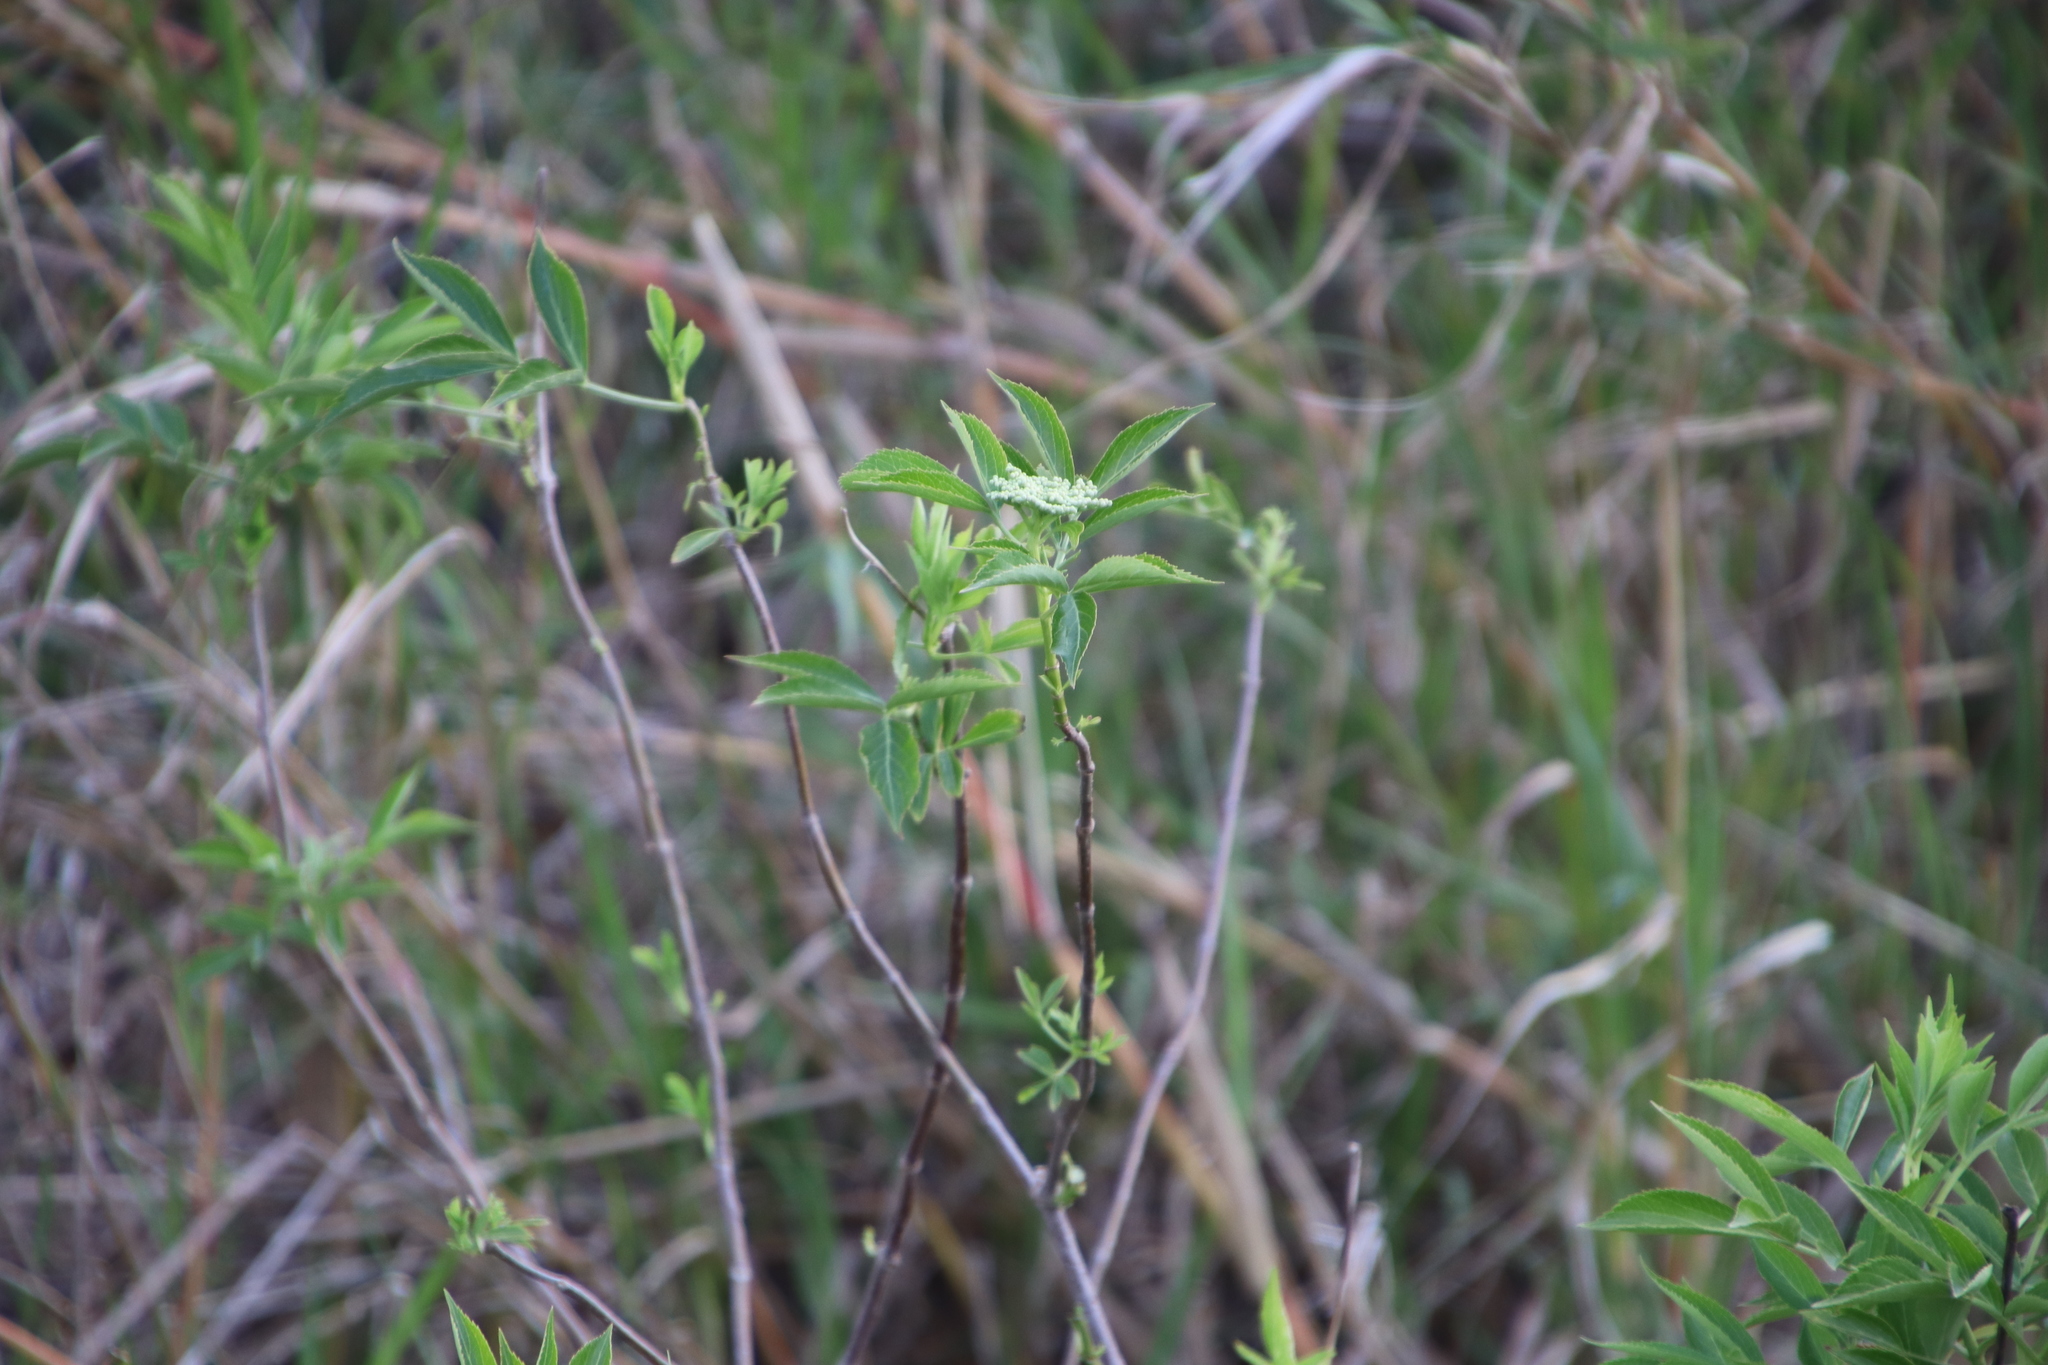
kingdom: Plantae
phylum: Tracheophyta
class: Magnoliopsida
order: Dipsacales
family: Viburnaceae
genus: Sambucus
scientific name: Sambucus nigra
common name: Elder
